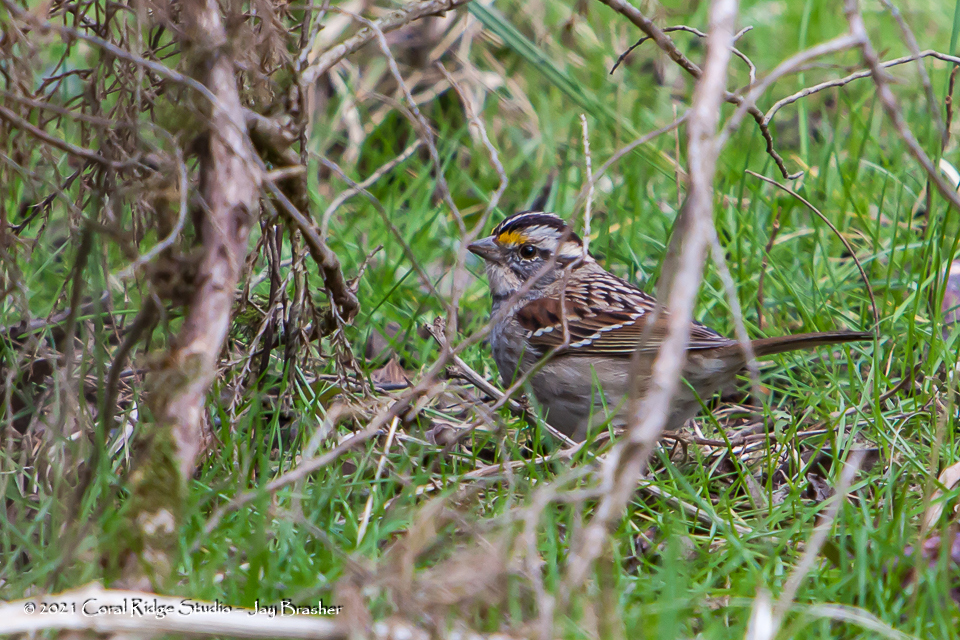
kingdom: Animalia
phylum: Chordata
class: Aves
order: Passeriformes
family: Passerellidae
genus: Zonotrichia
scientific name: Zonotrichia albicollis
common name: White-throated sparrow
